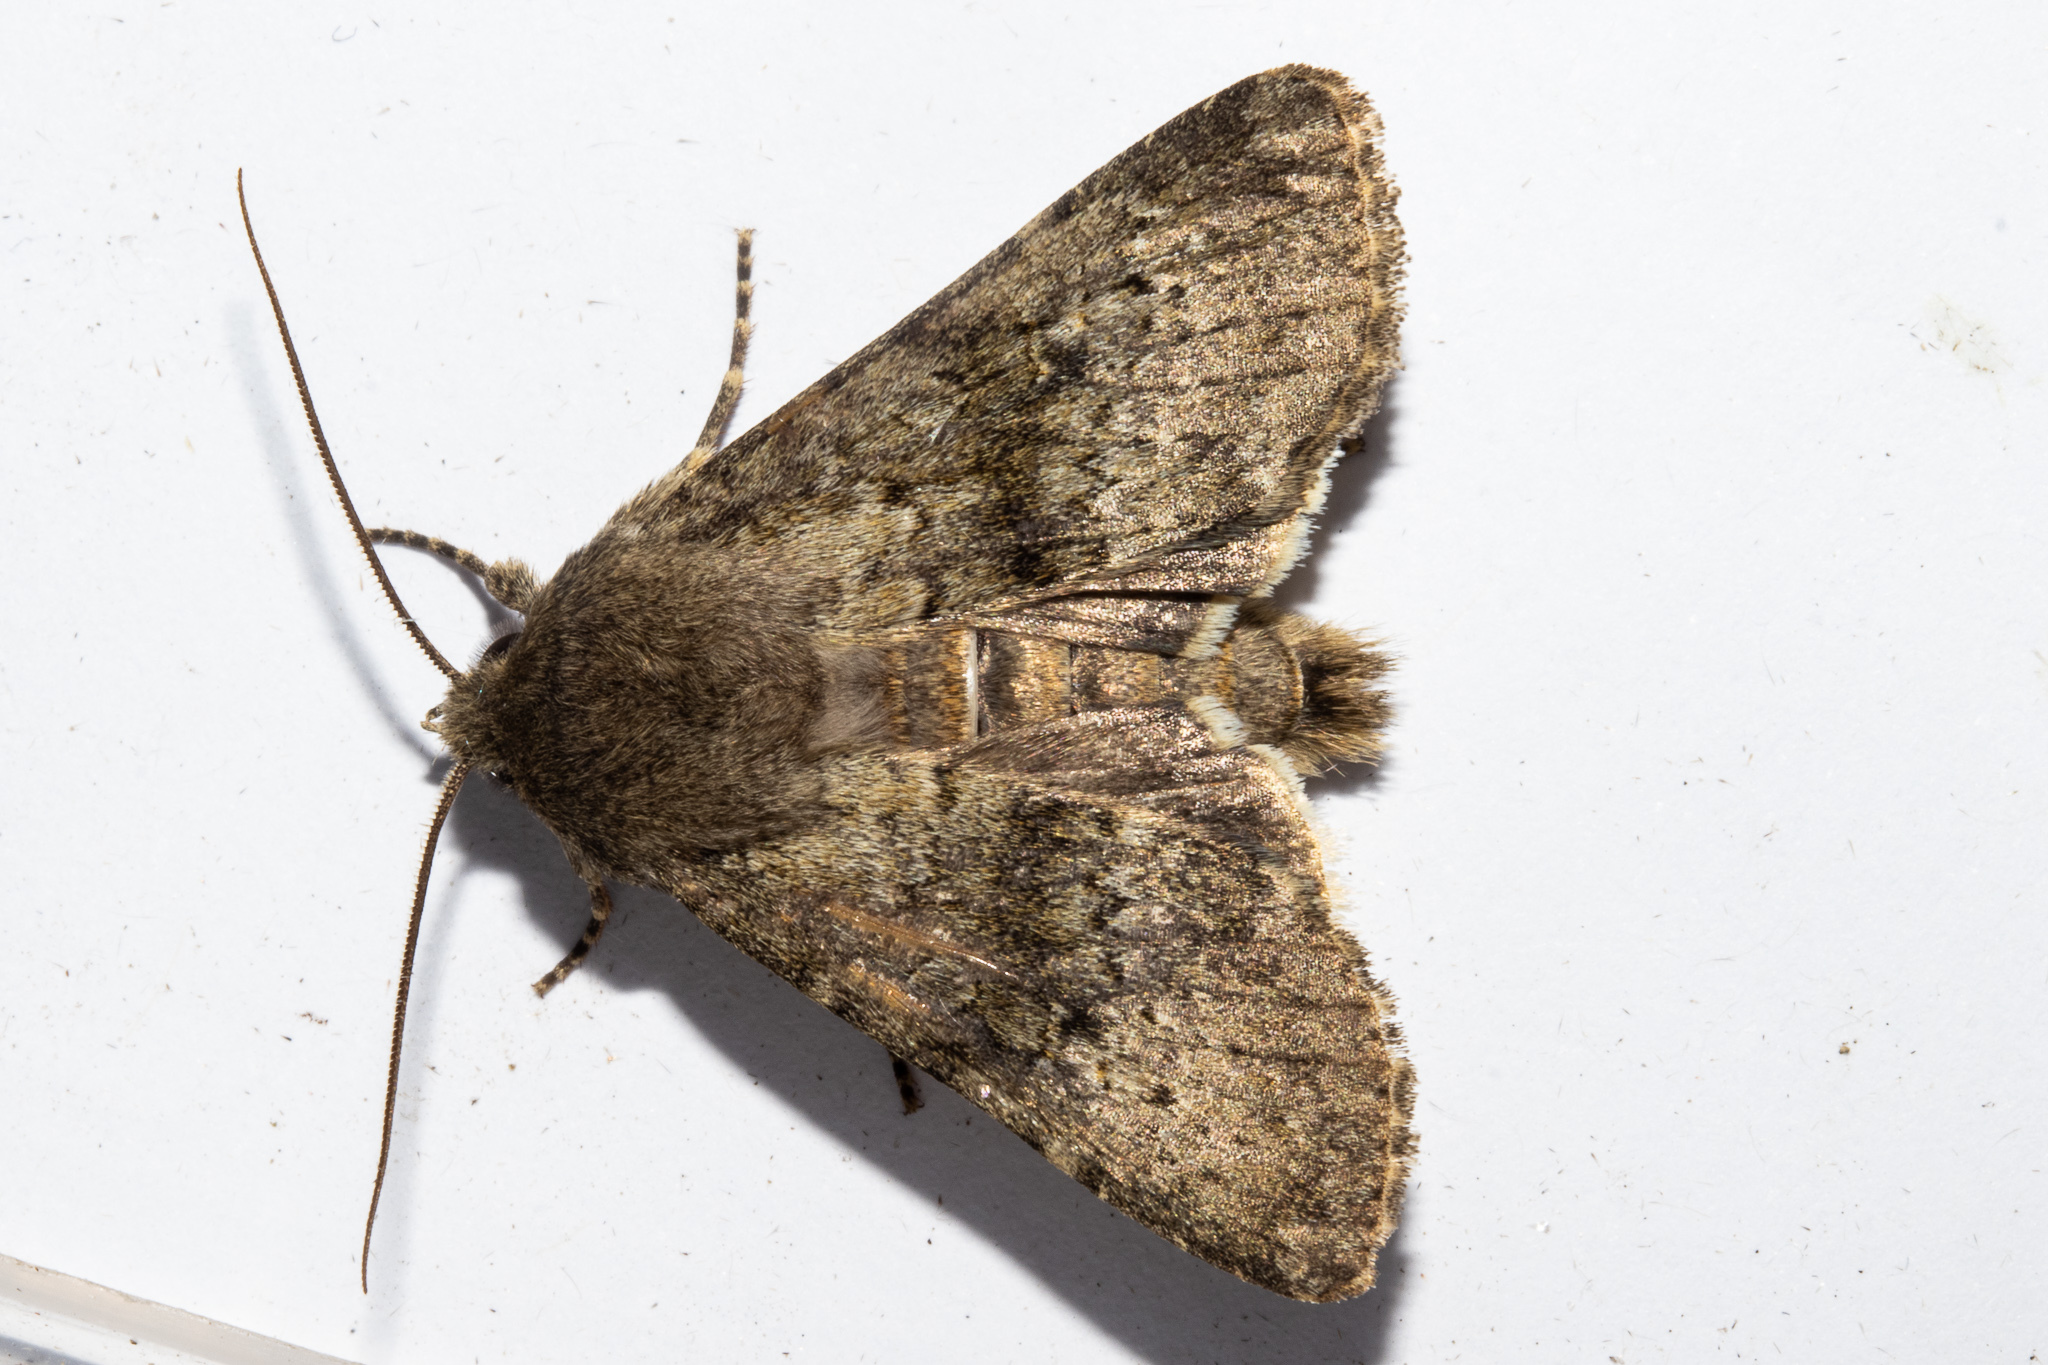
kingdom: Animalia
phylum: Arthropoda
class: Insecta
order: Lepidoptera
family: Noctuidae
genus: Ichneutica
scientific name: Ichneutica moderata
